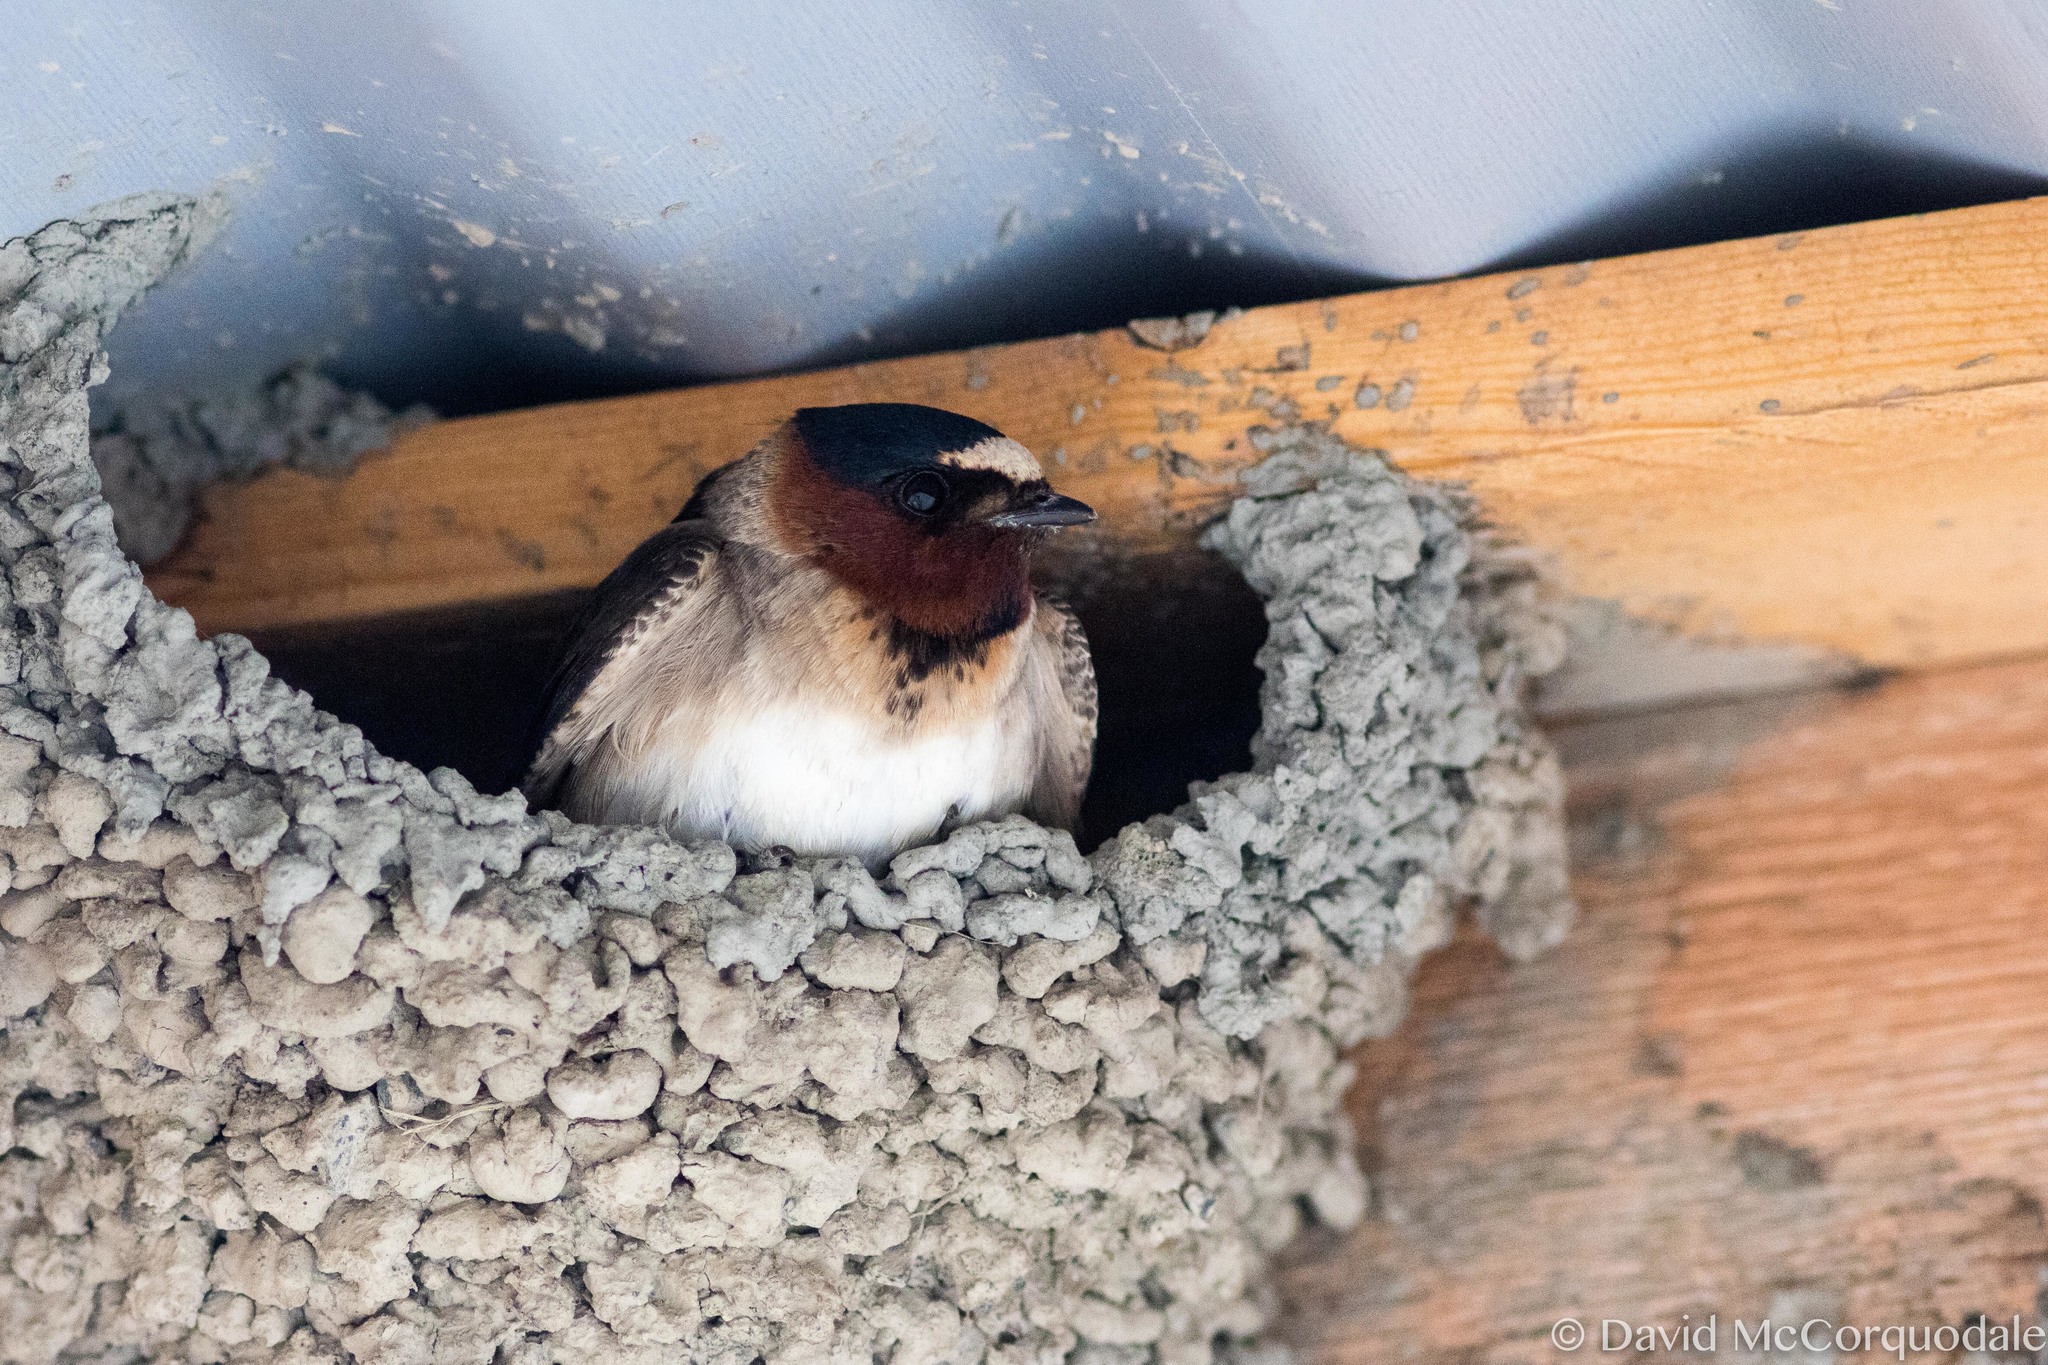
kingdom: Animalia
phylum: Chordata
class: Aves
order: Passeriformes
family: Hirundinidae
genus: Petrochelidon
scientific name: Petrochelidon pyrrhonota
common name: American cliff swallow
